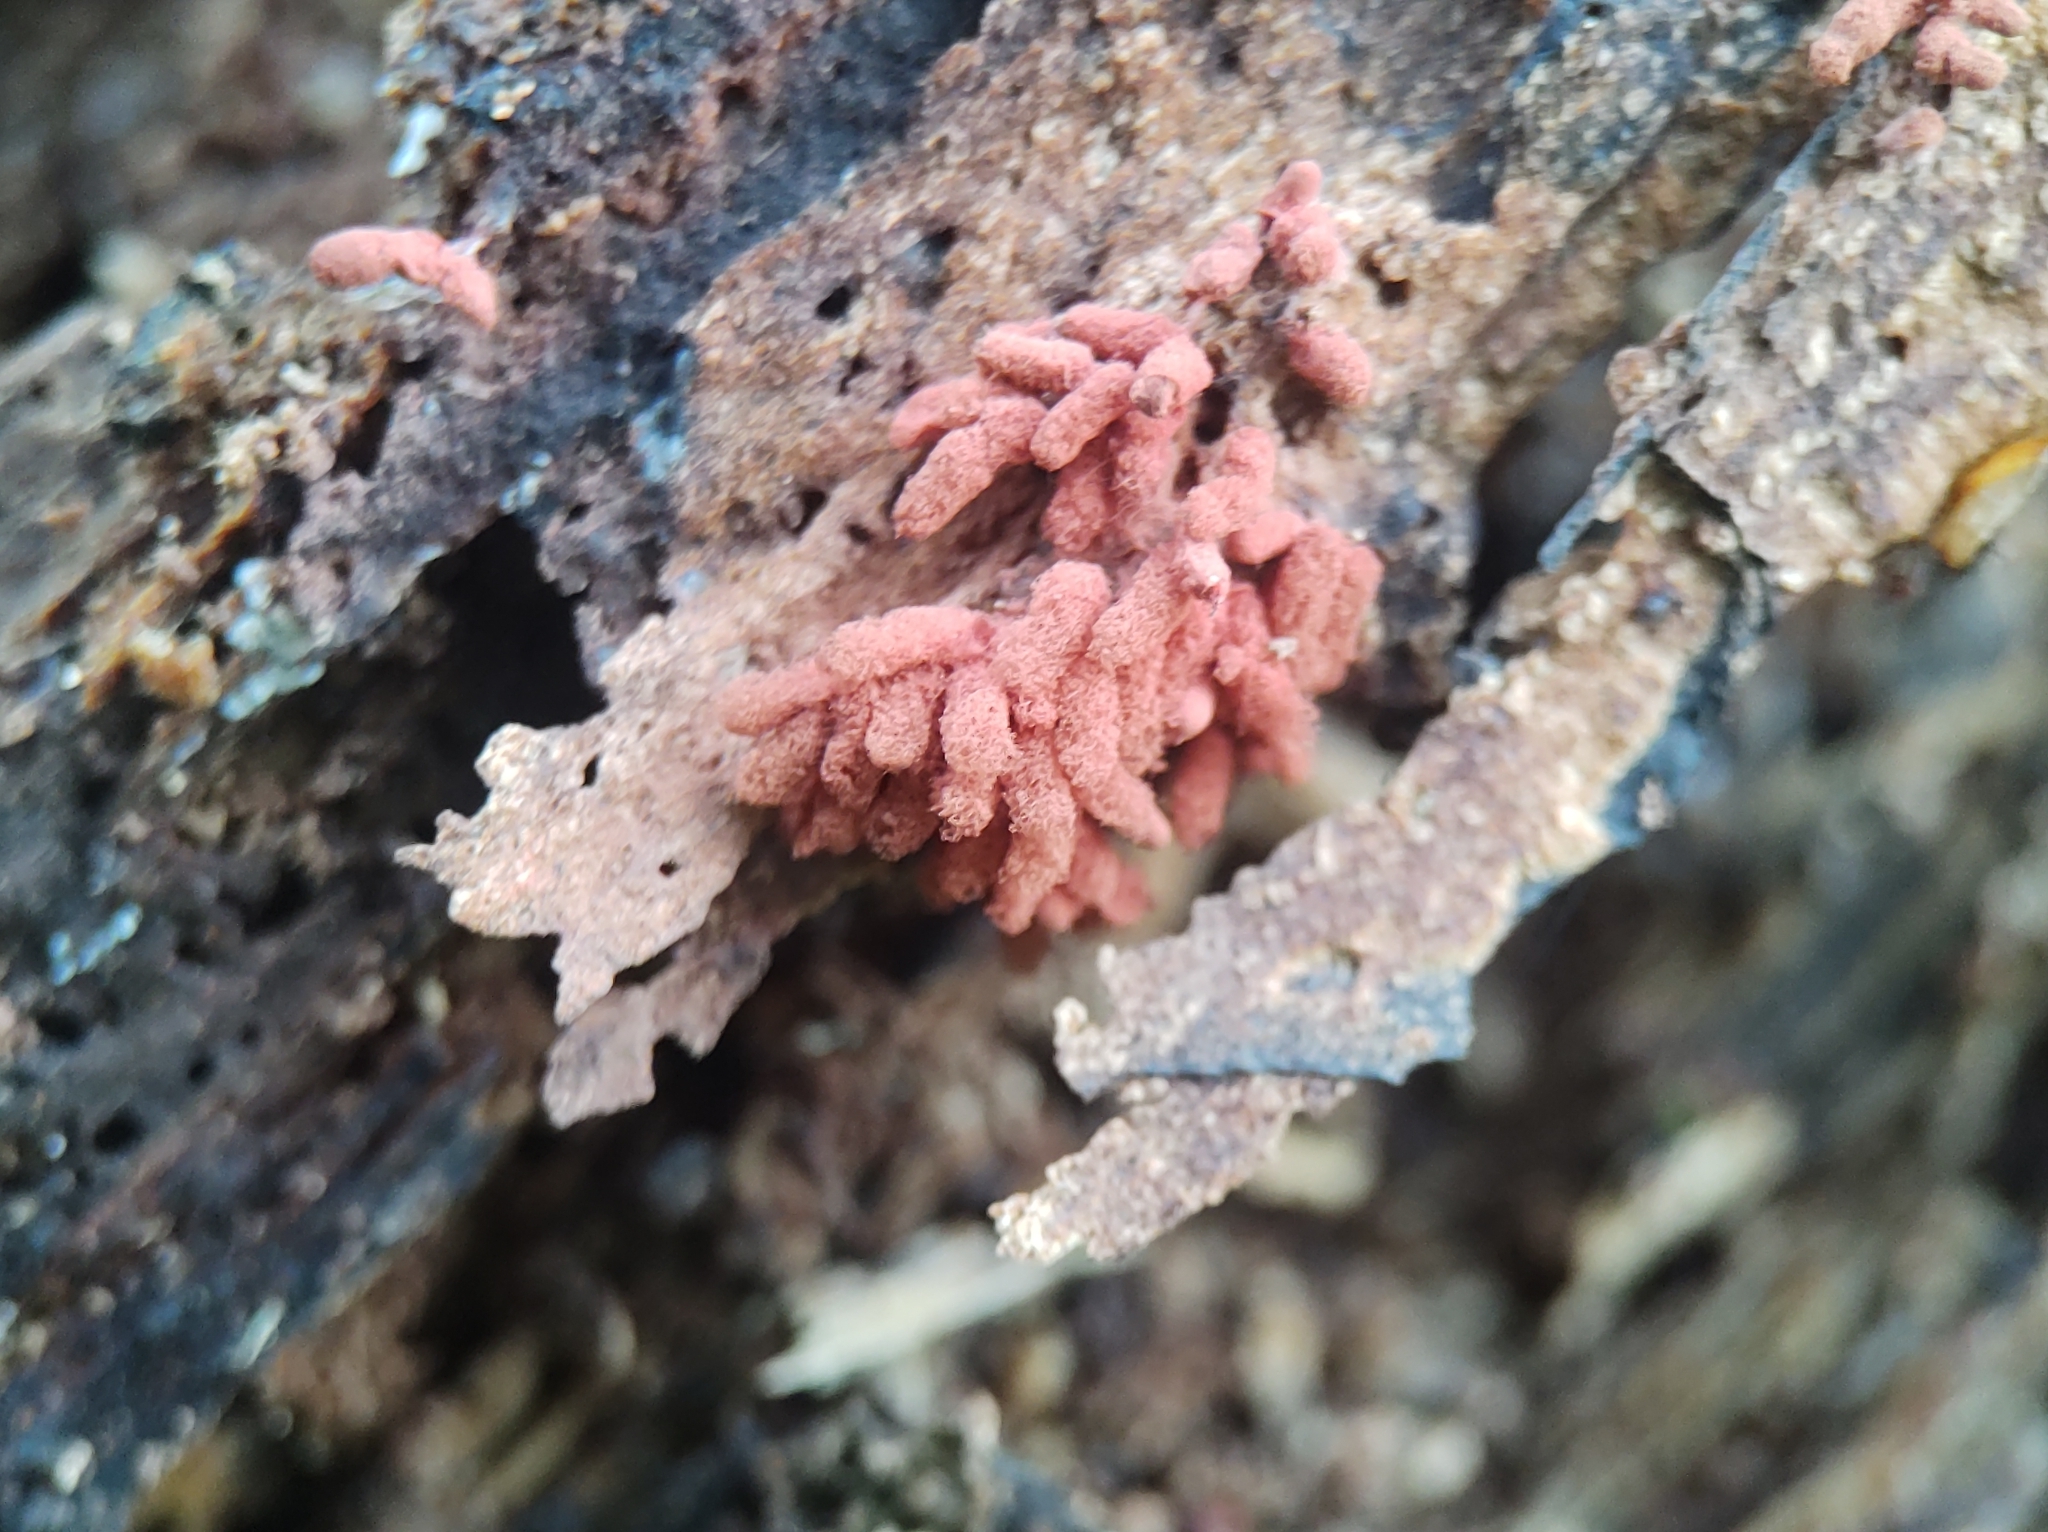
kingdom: Protozoa
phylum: Mycetozoa
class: Myxomycetes
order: Trichiales
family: Arcyriaceae
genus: Arcyria
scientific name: Arcyria denudata
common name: Carnival candy slime mold
